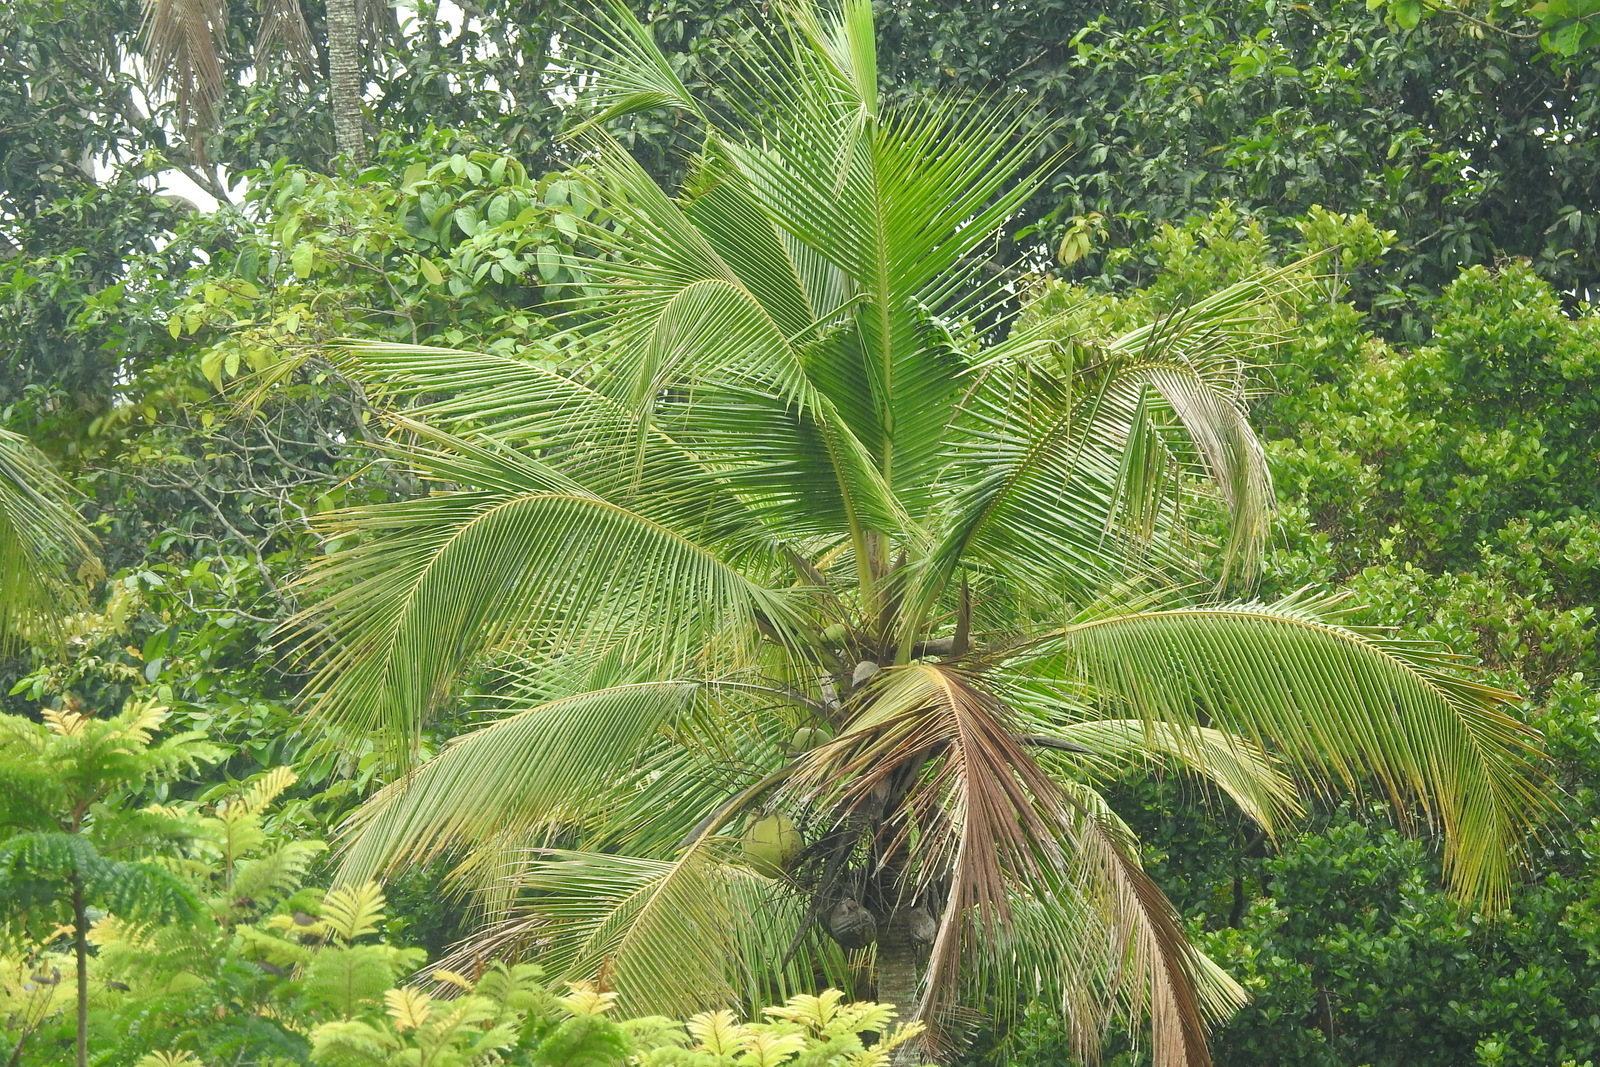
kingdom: Plantae
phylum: Tracheophyta
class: Liliopsida
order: Arecales
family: Arecaceae
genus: Cocos
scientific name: Cocos nucifera
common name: Coconut palm
